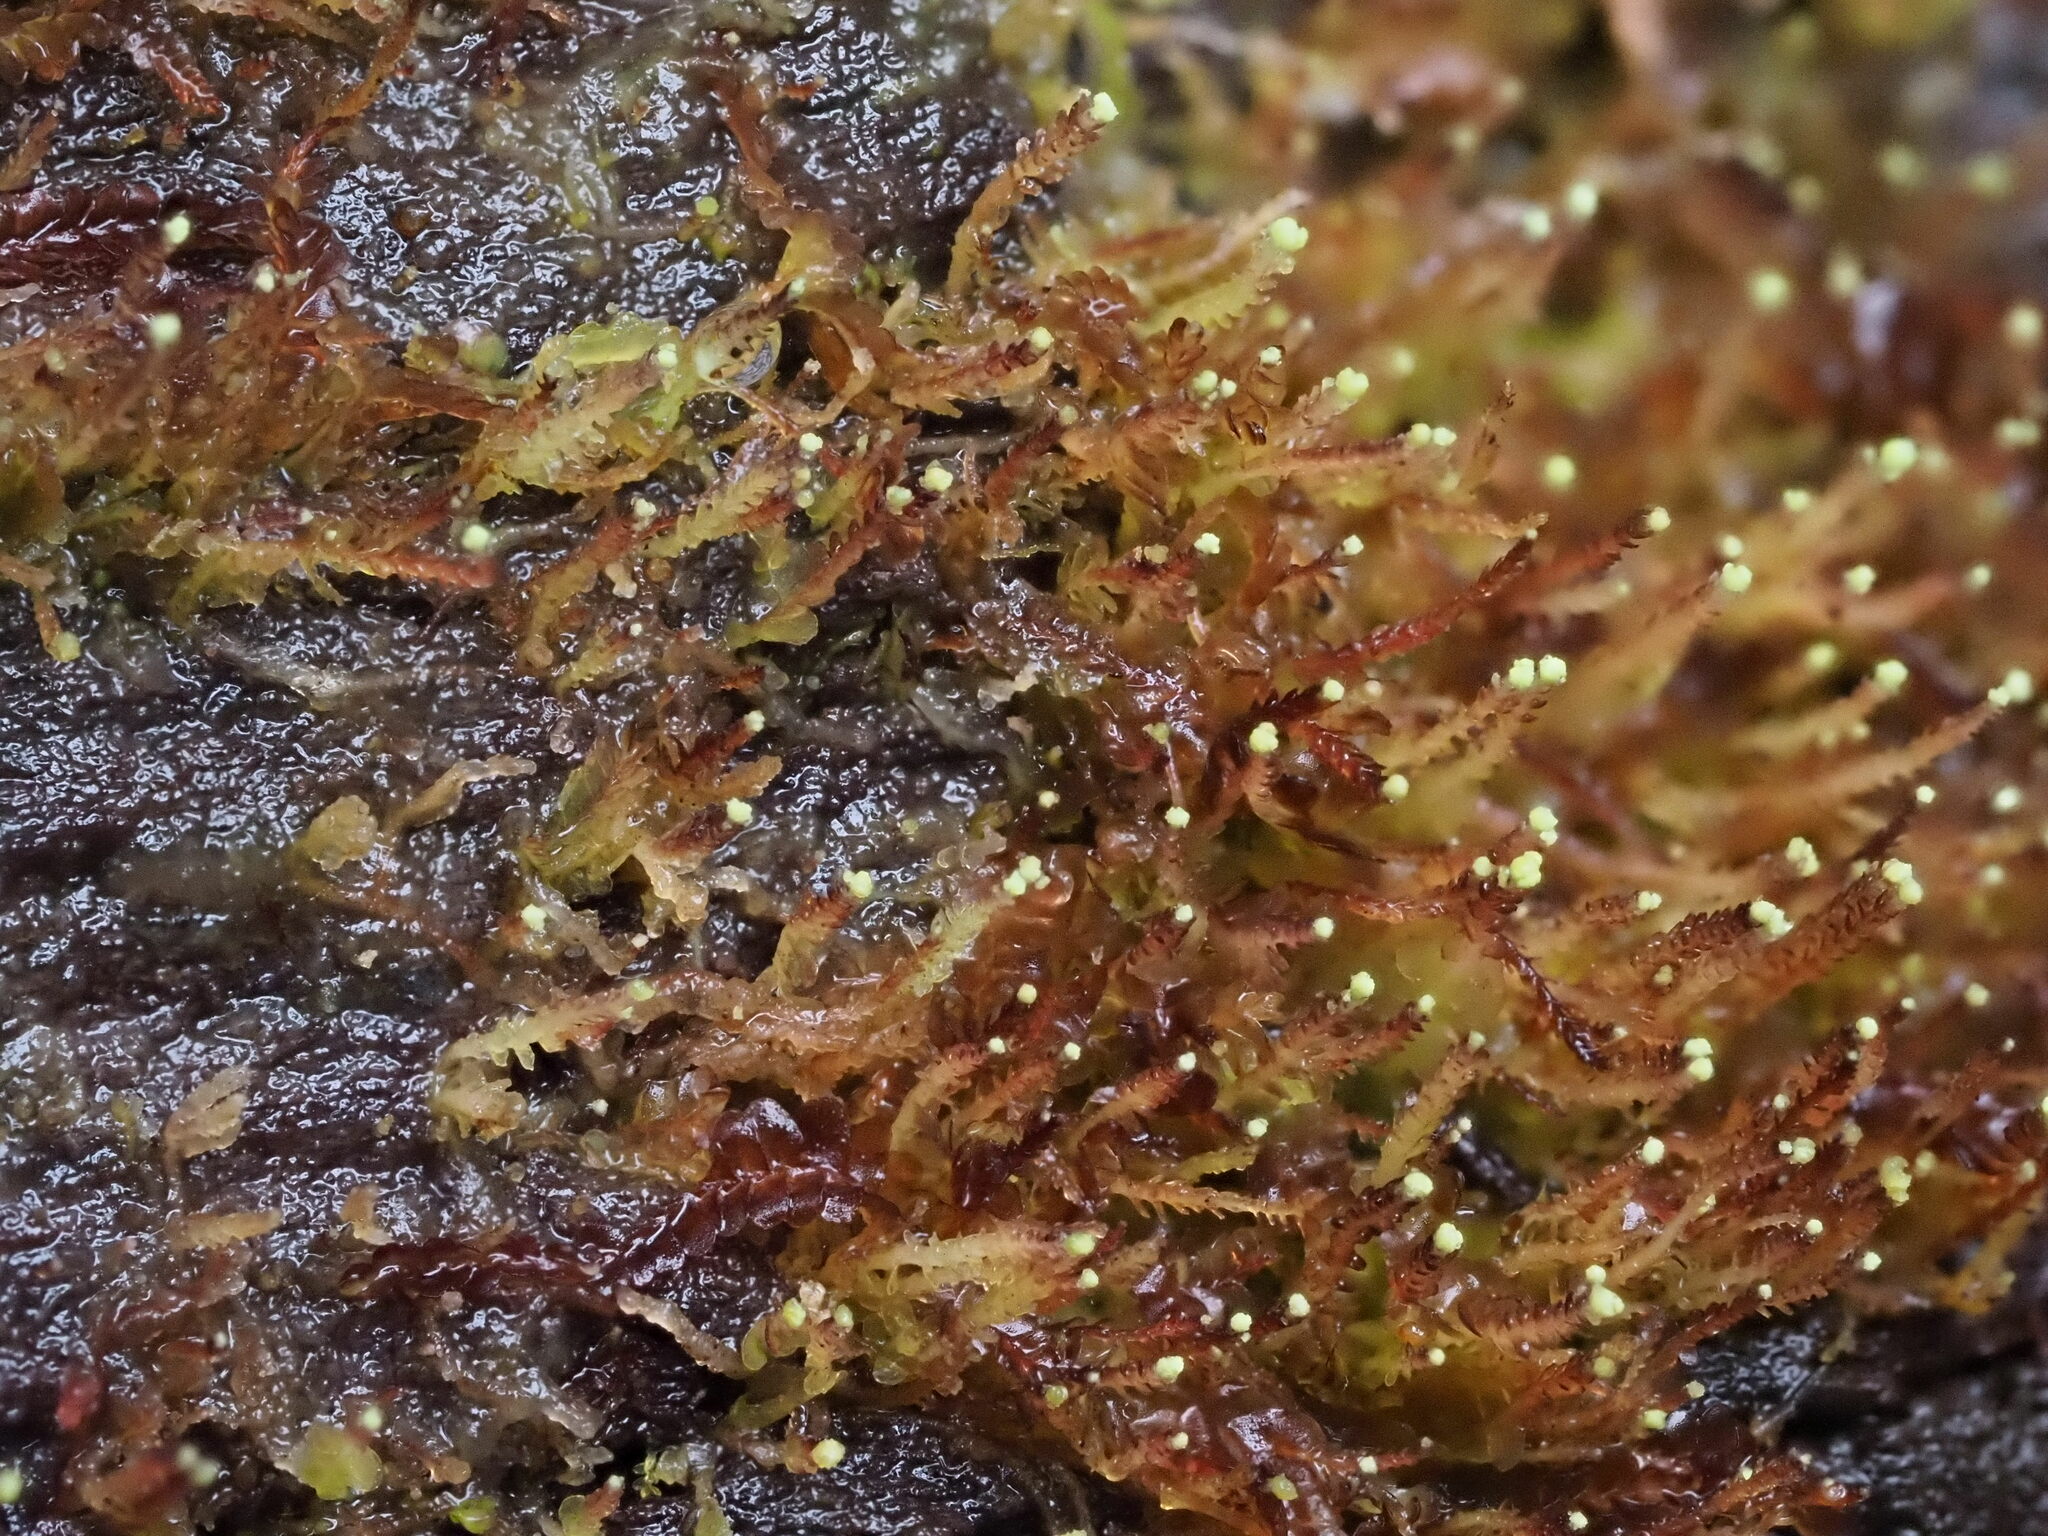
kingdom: Plantae
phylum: Marchantiophyta
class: Jungermanniopsida
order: Jungermanniales
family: Cephaloziaceae
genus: Odontoschisma
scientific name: Odontoschisma denudatum
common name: Matchstick flapwort
